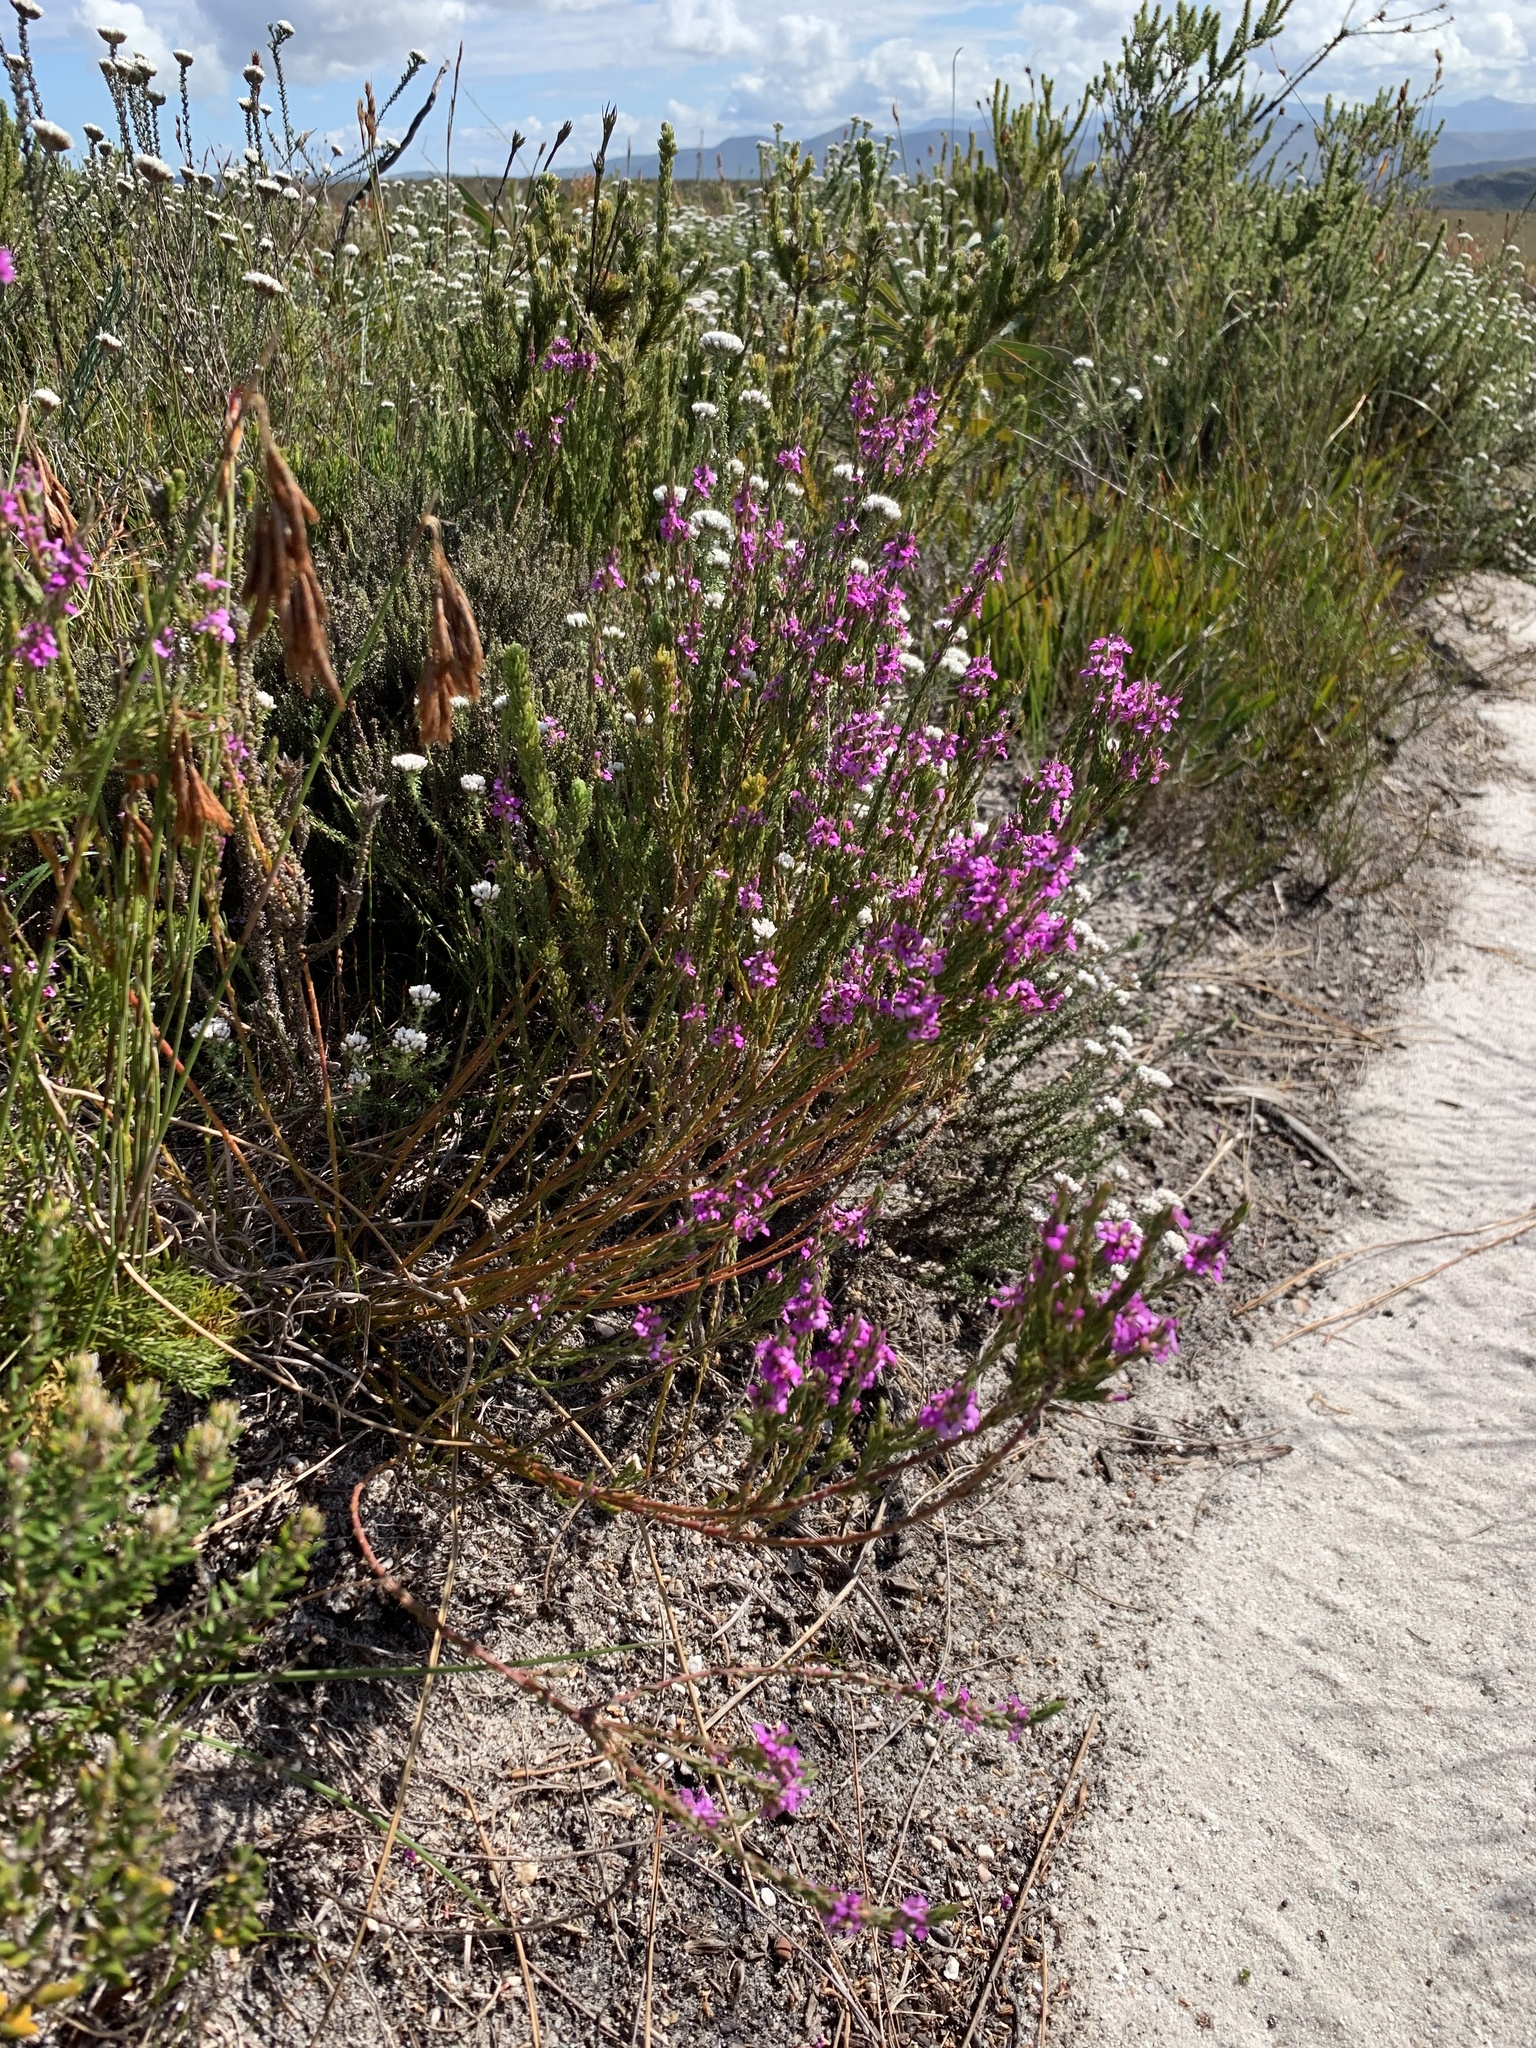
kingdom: Plantae
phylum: Tracheophyta
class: Magnoliopsida
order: Ericales
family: Ericaceae
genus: Erica
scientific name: Erica pulchella
